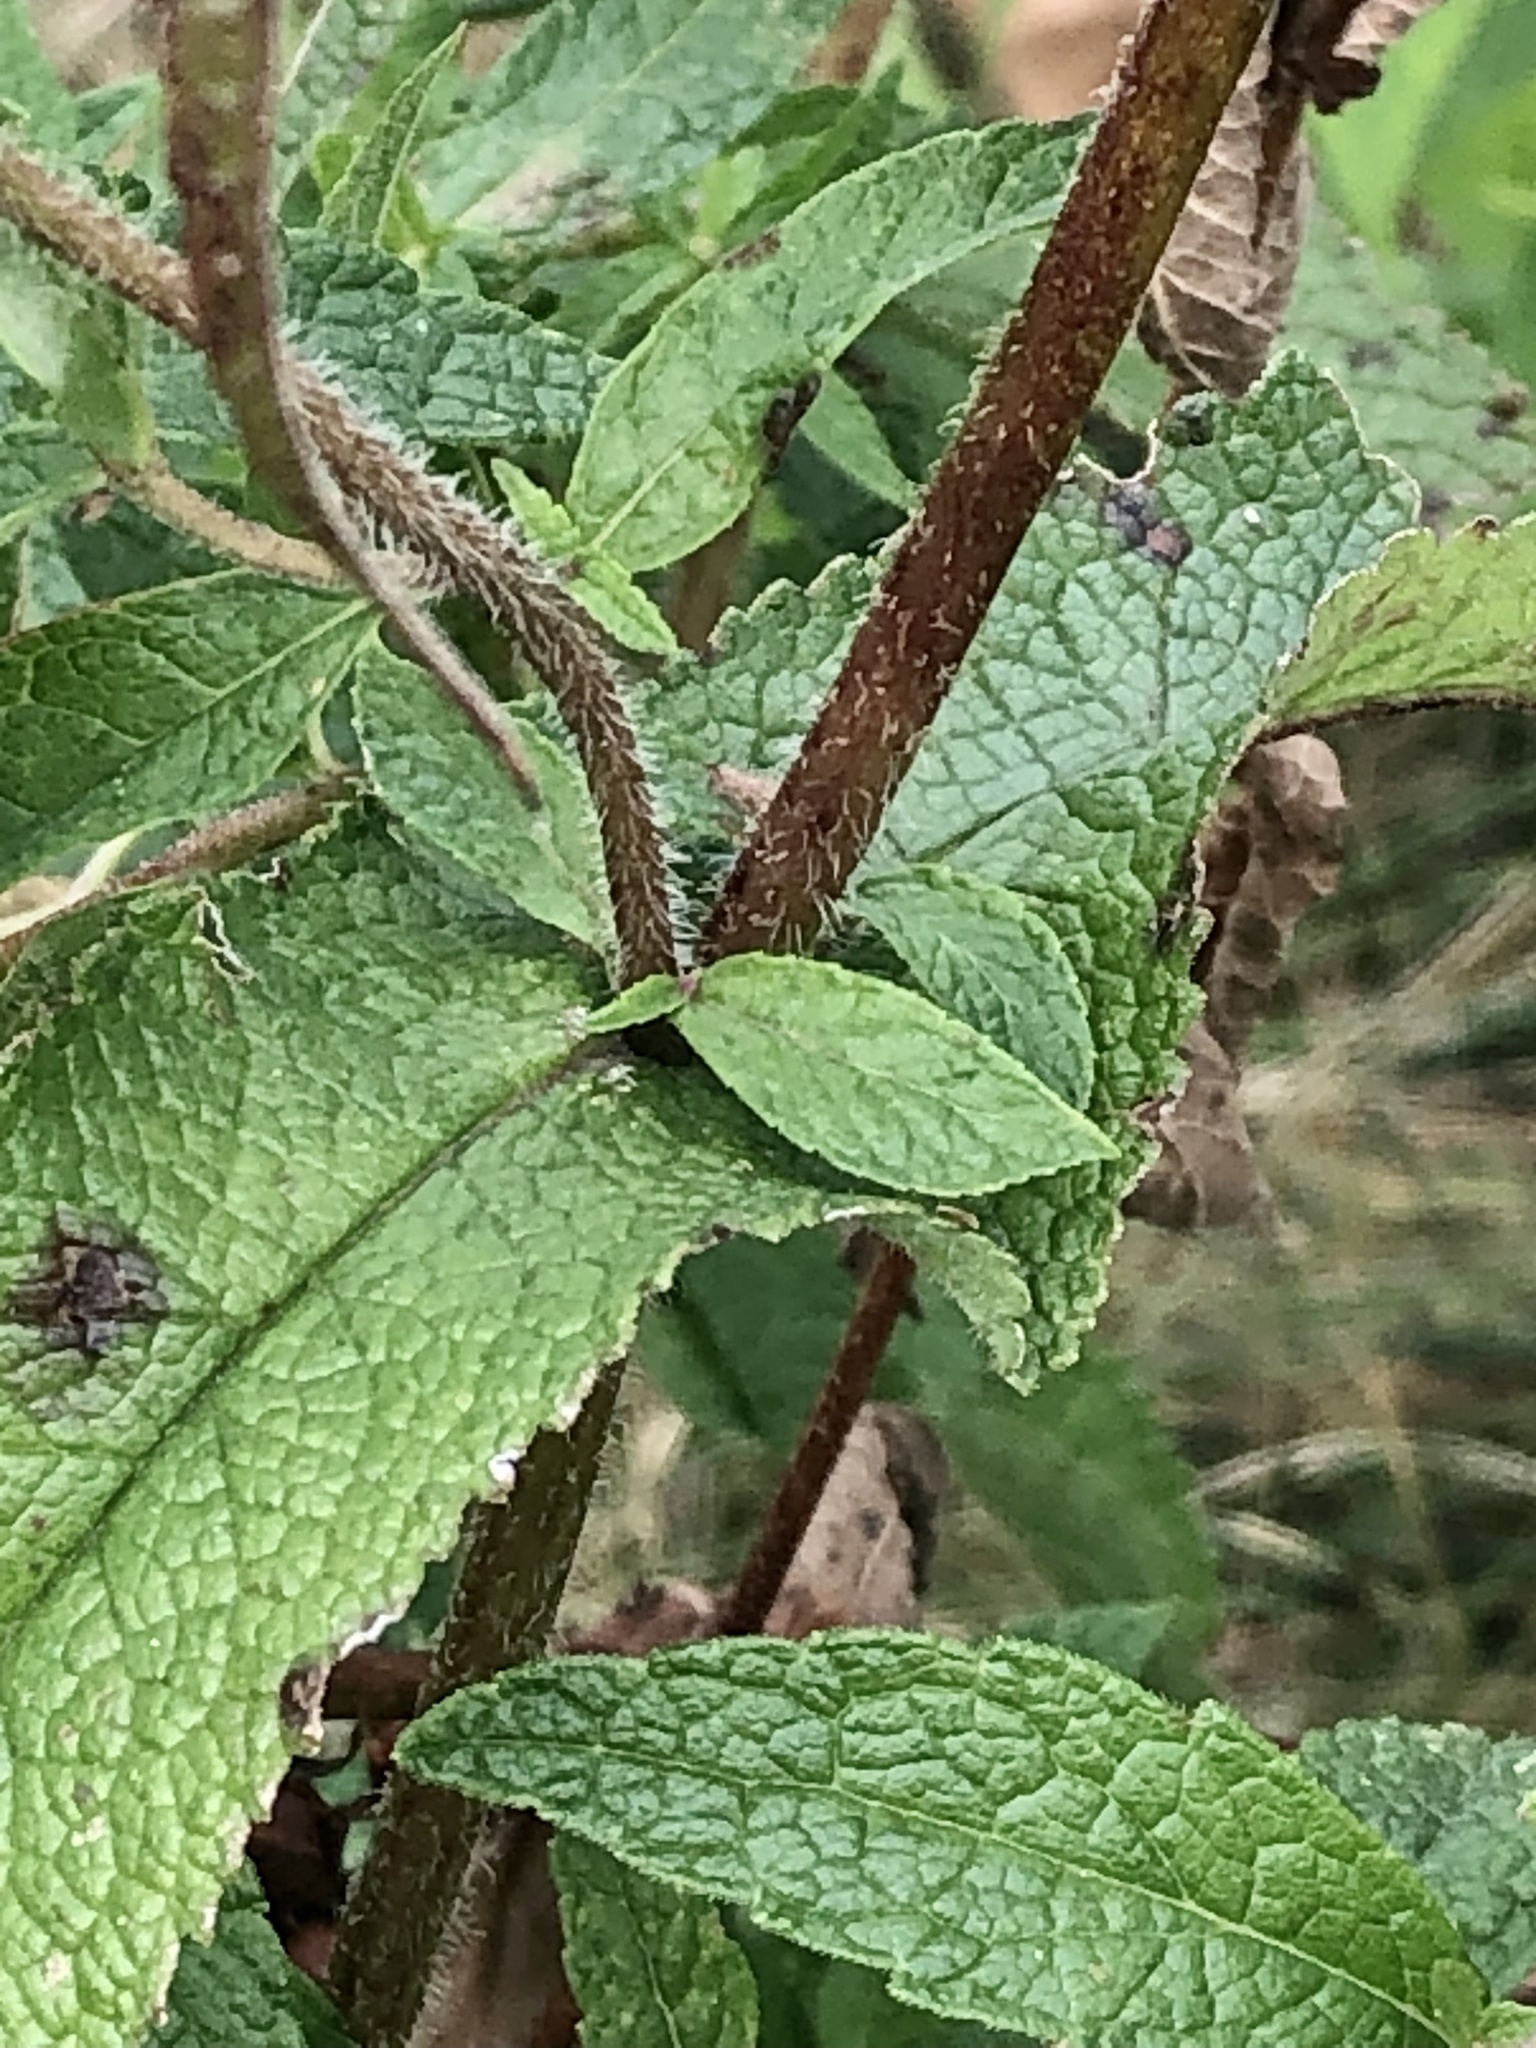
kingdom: Plantae
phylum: Tracheophyta
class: Magnoliopsida
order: Asterales
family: Asteraceae
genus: Eupatorium
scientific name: Eupatorium perfoliatum
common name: Boneset
